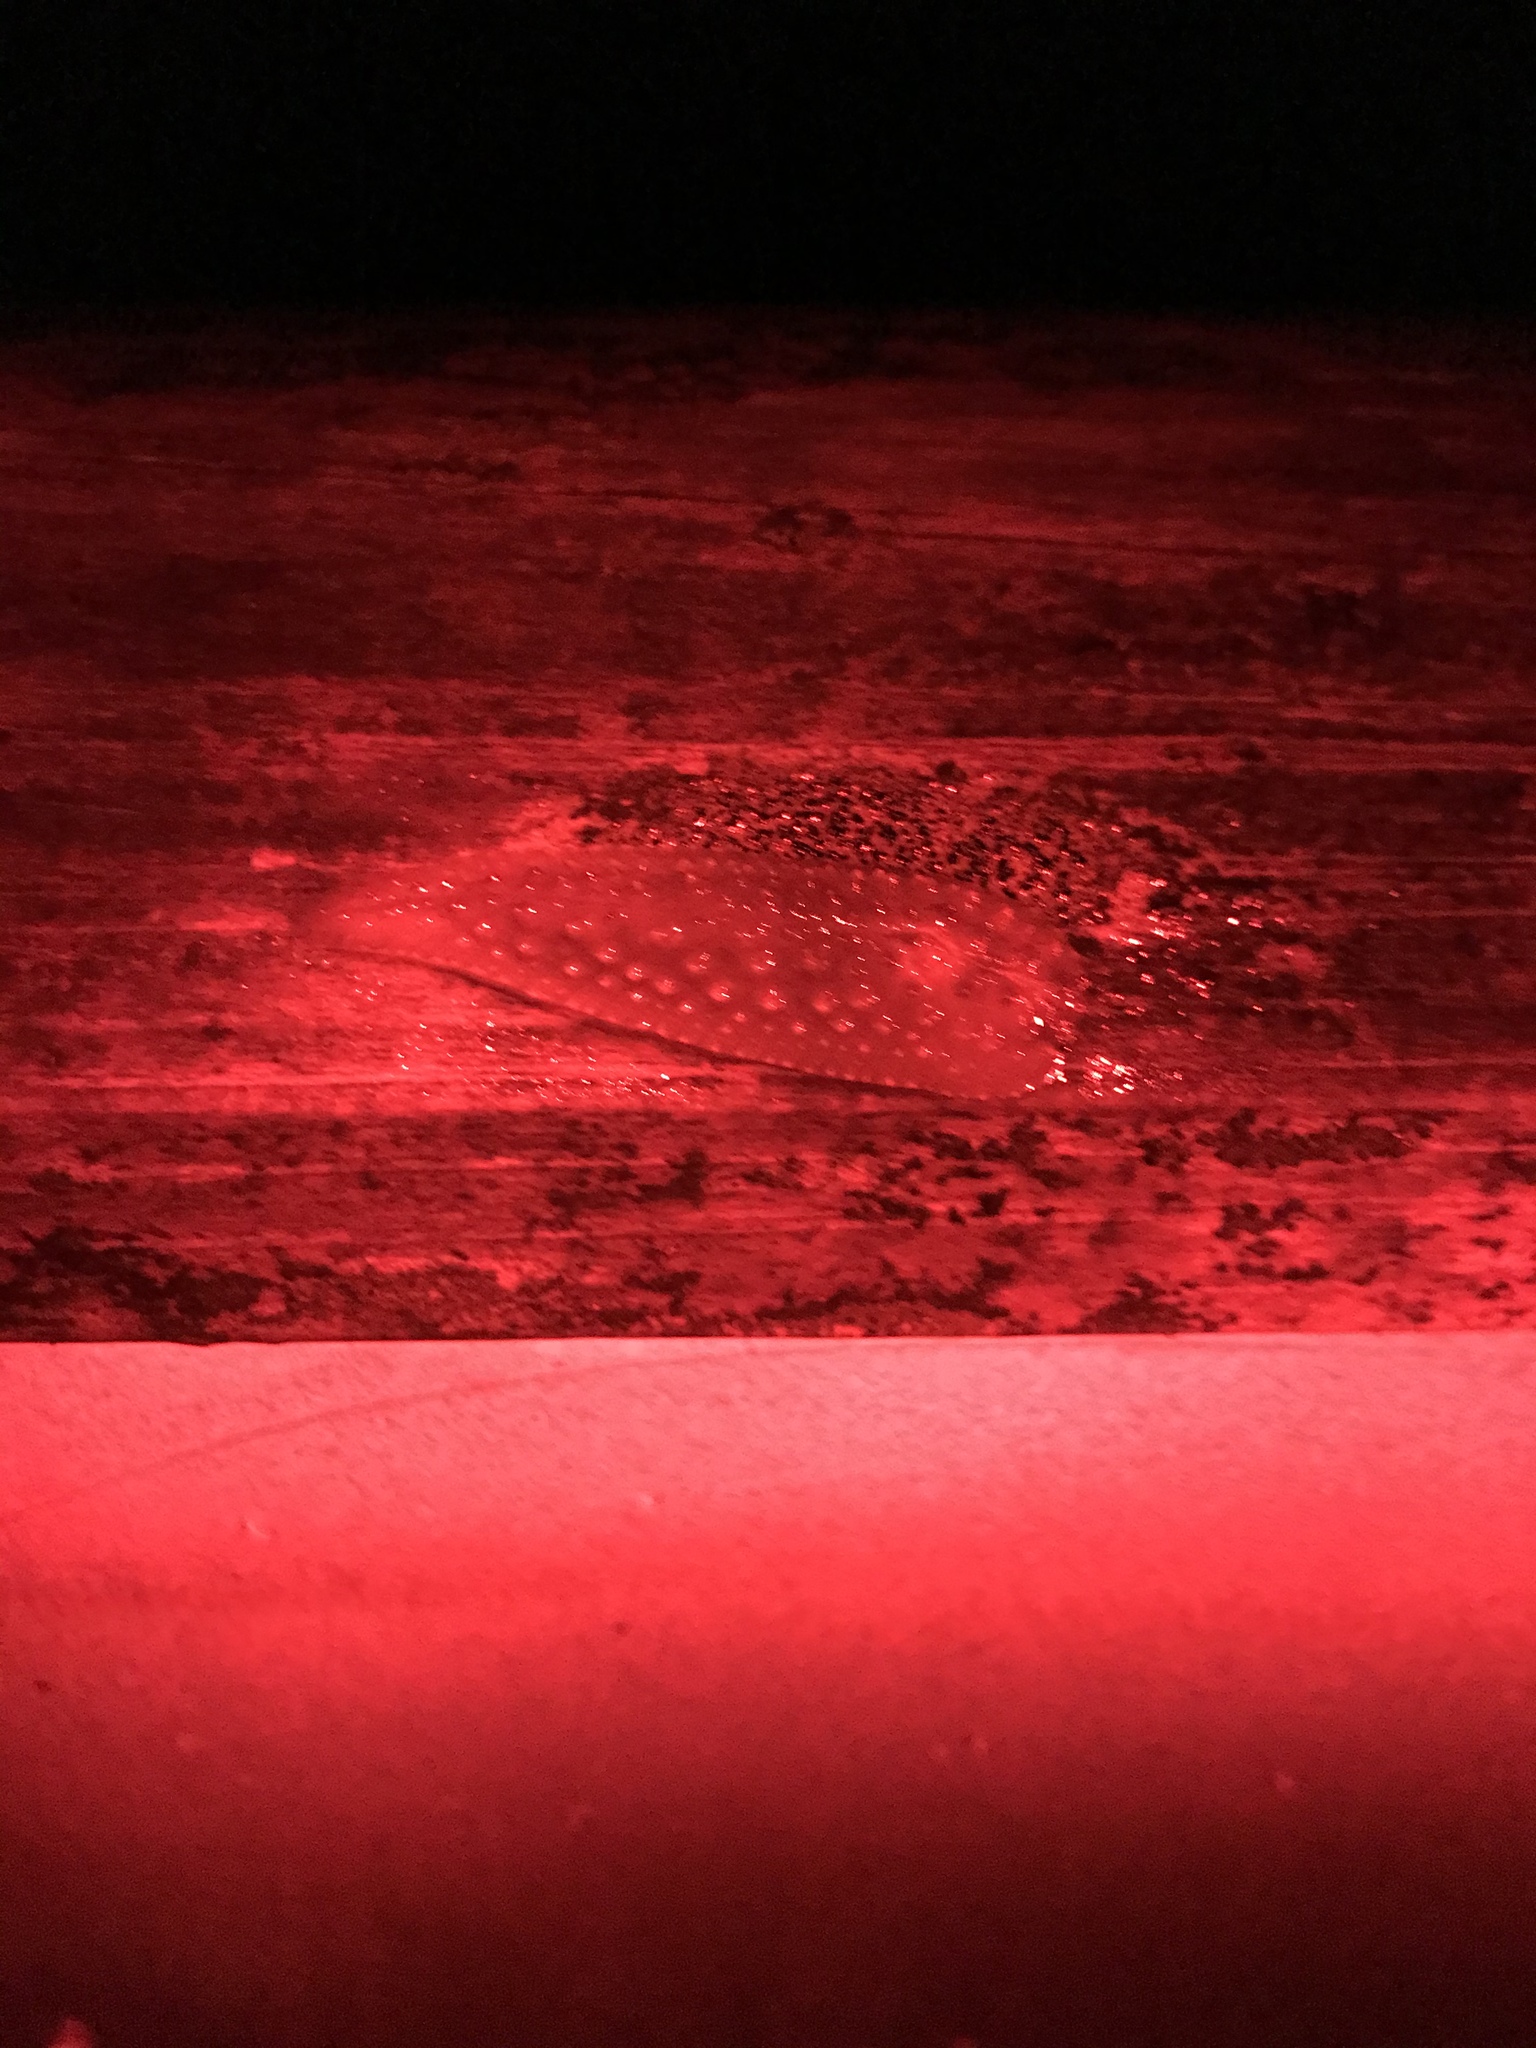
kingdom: Animalia
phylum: Mollusca
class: Gastropoda
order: Stylommatophora
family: Athoracophoridae
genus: Athoracophorus
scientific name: Athoracophorus papillatus
